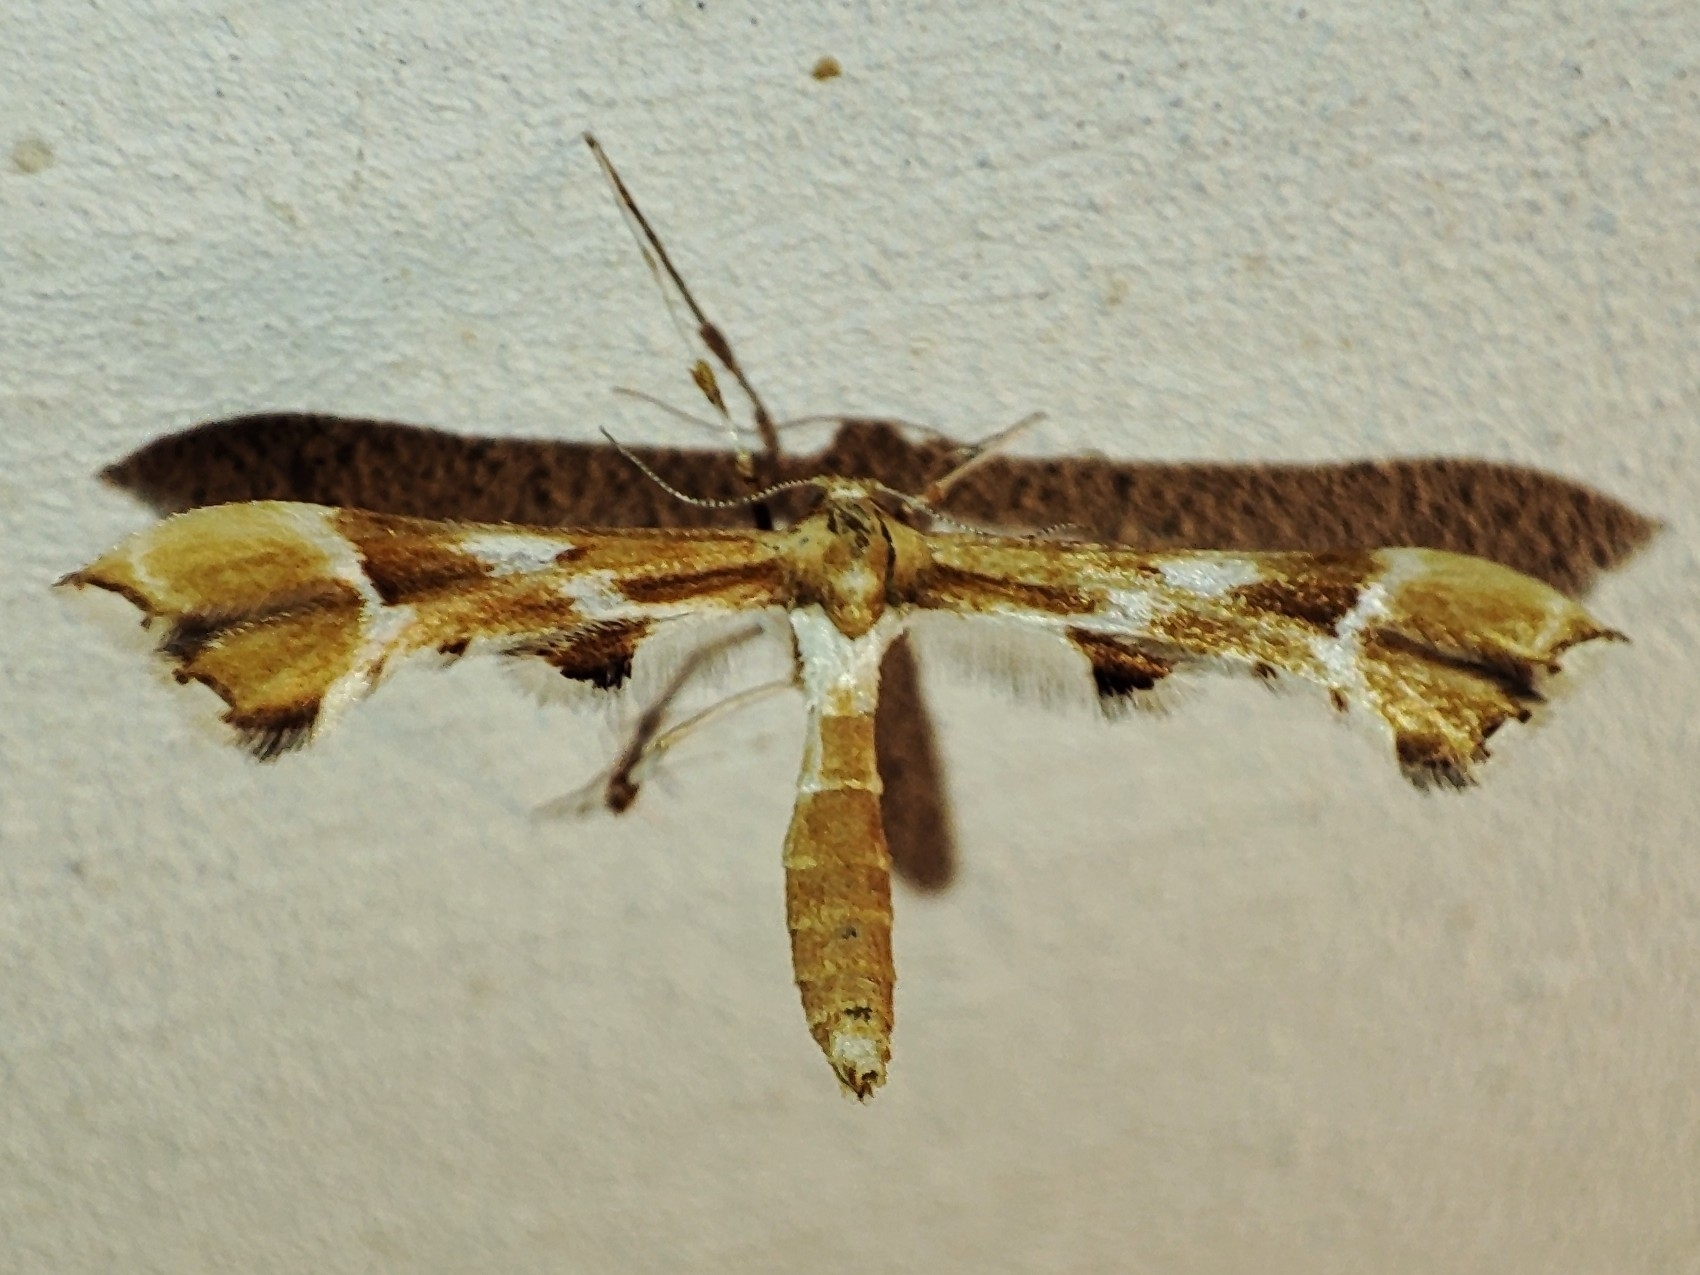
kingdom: Animalia
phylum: Arthropoda
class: Insecta
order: Lepidoptera
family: Pterophoridae
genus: Cnaemidophorus
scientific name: Cnaemidophorus rhododactyla
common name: Rose plume
